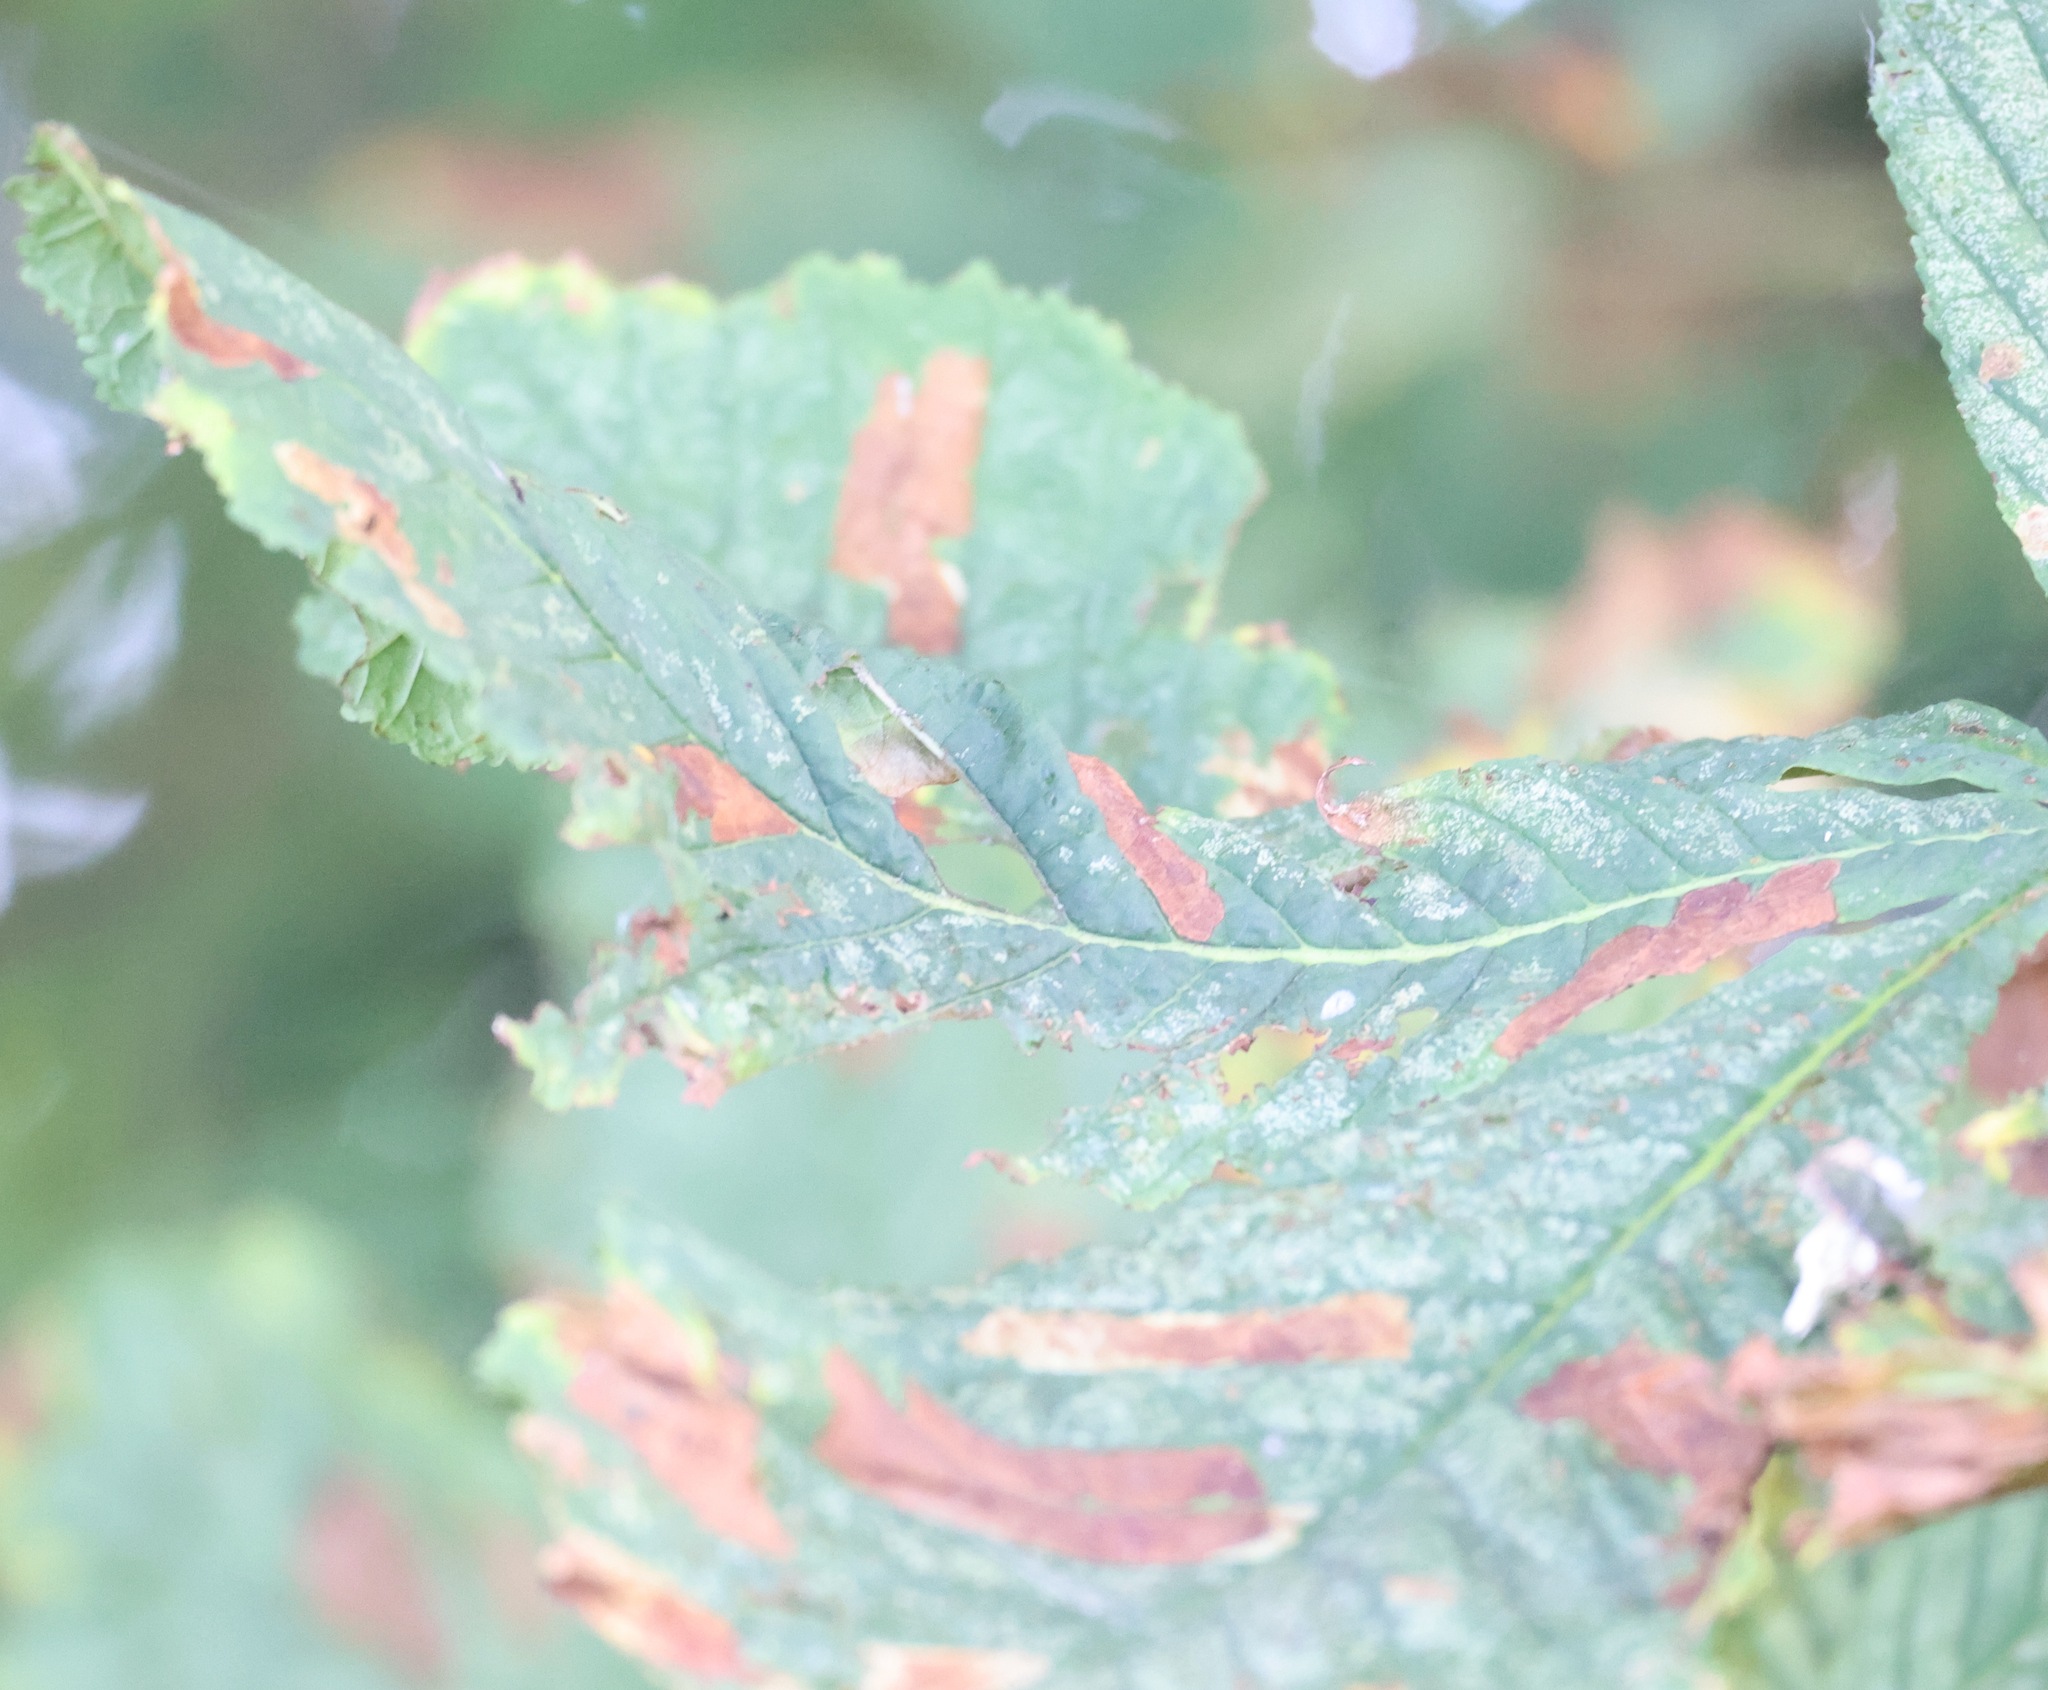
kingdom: Animalia
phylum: Arthropoda
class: Insecta
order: Lepidoptera
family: Gracillariidae
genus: Cameraria
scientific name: Cameraria ohridella
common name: Horse-chestnut leaf-miner
